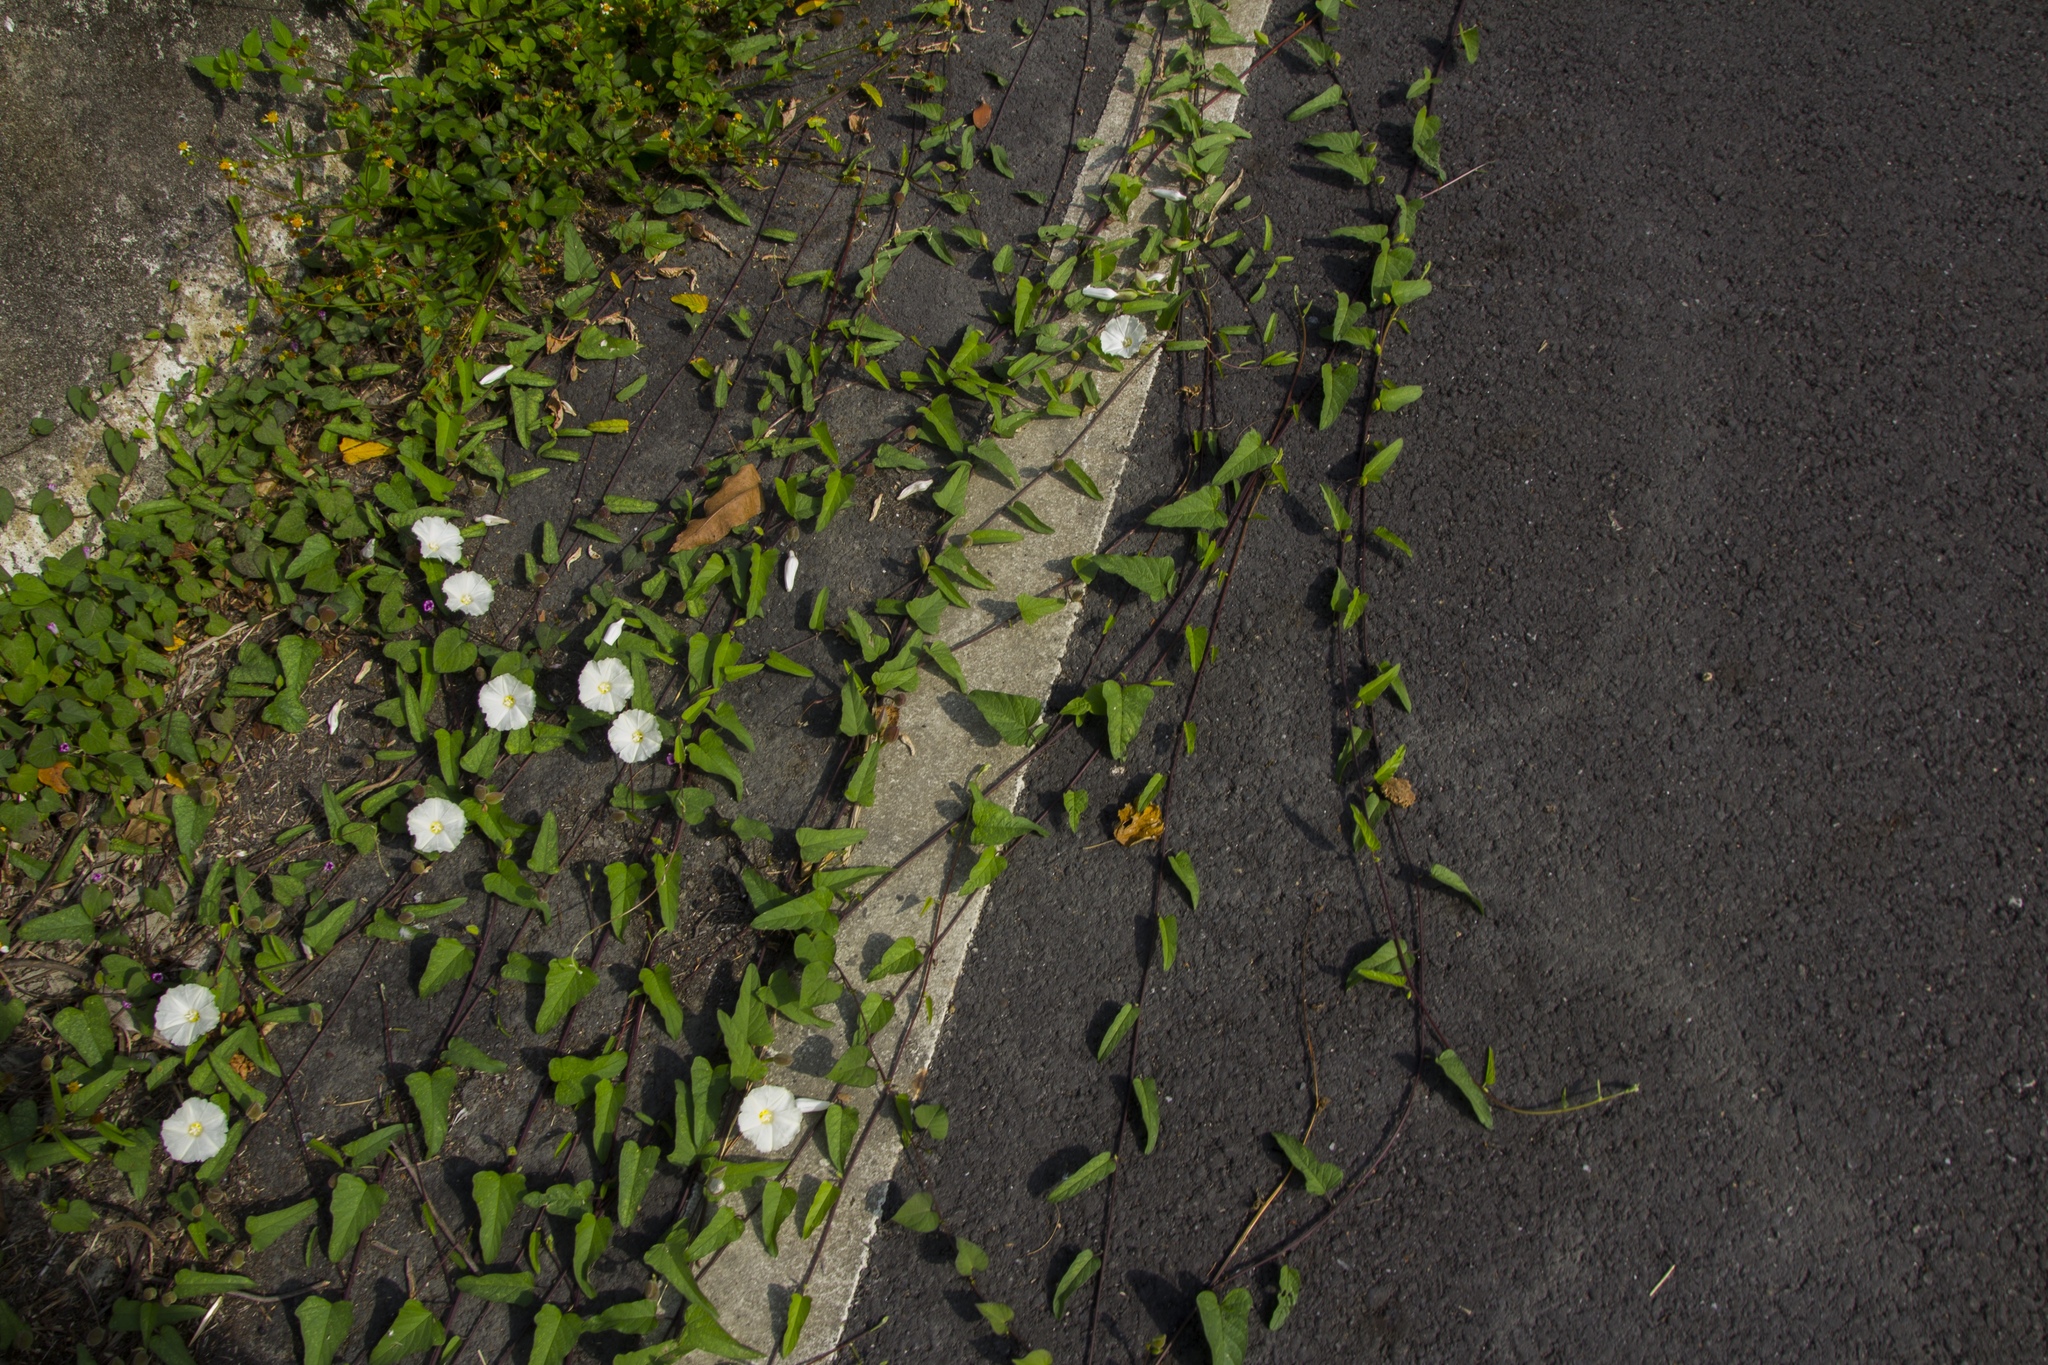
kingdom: Plantae
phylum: Tracheophyta
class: Magnoliopsida
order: Solanales
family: Convolvulaceae
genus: Operculina
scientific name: Operculina turpethum
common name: Transparent wood-rose
